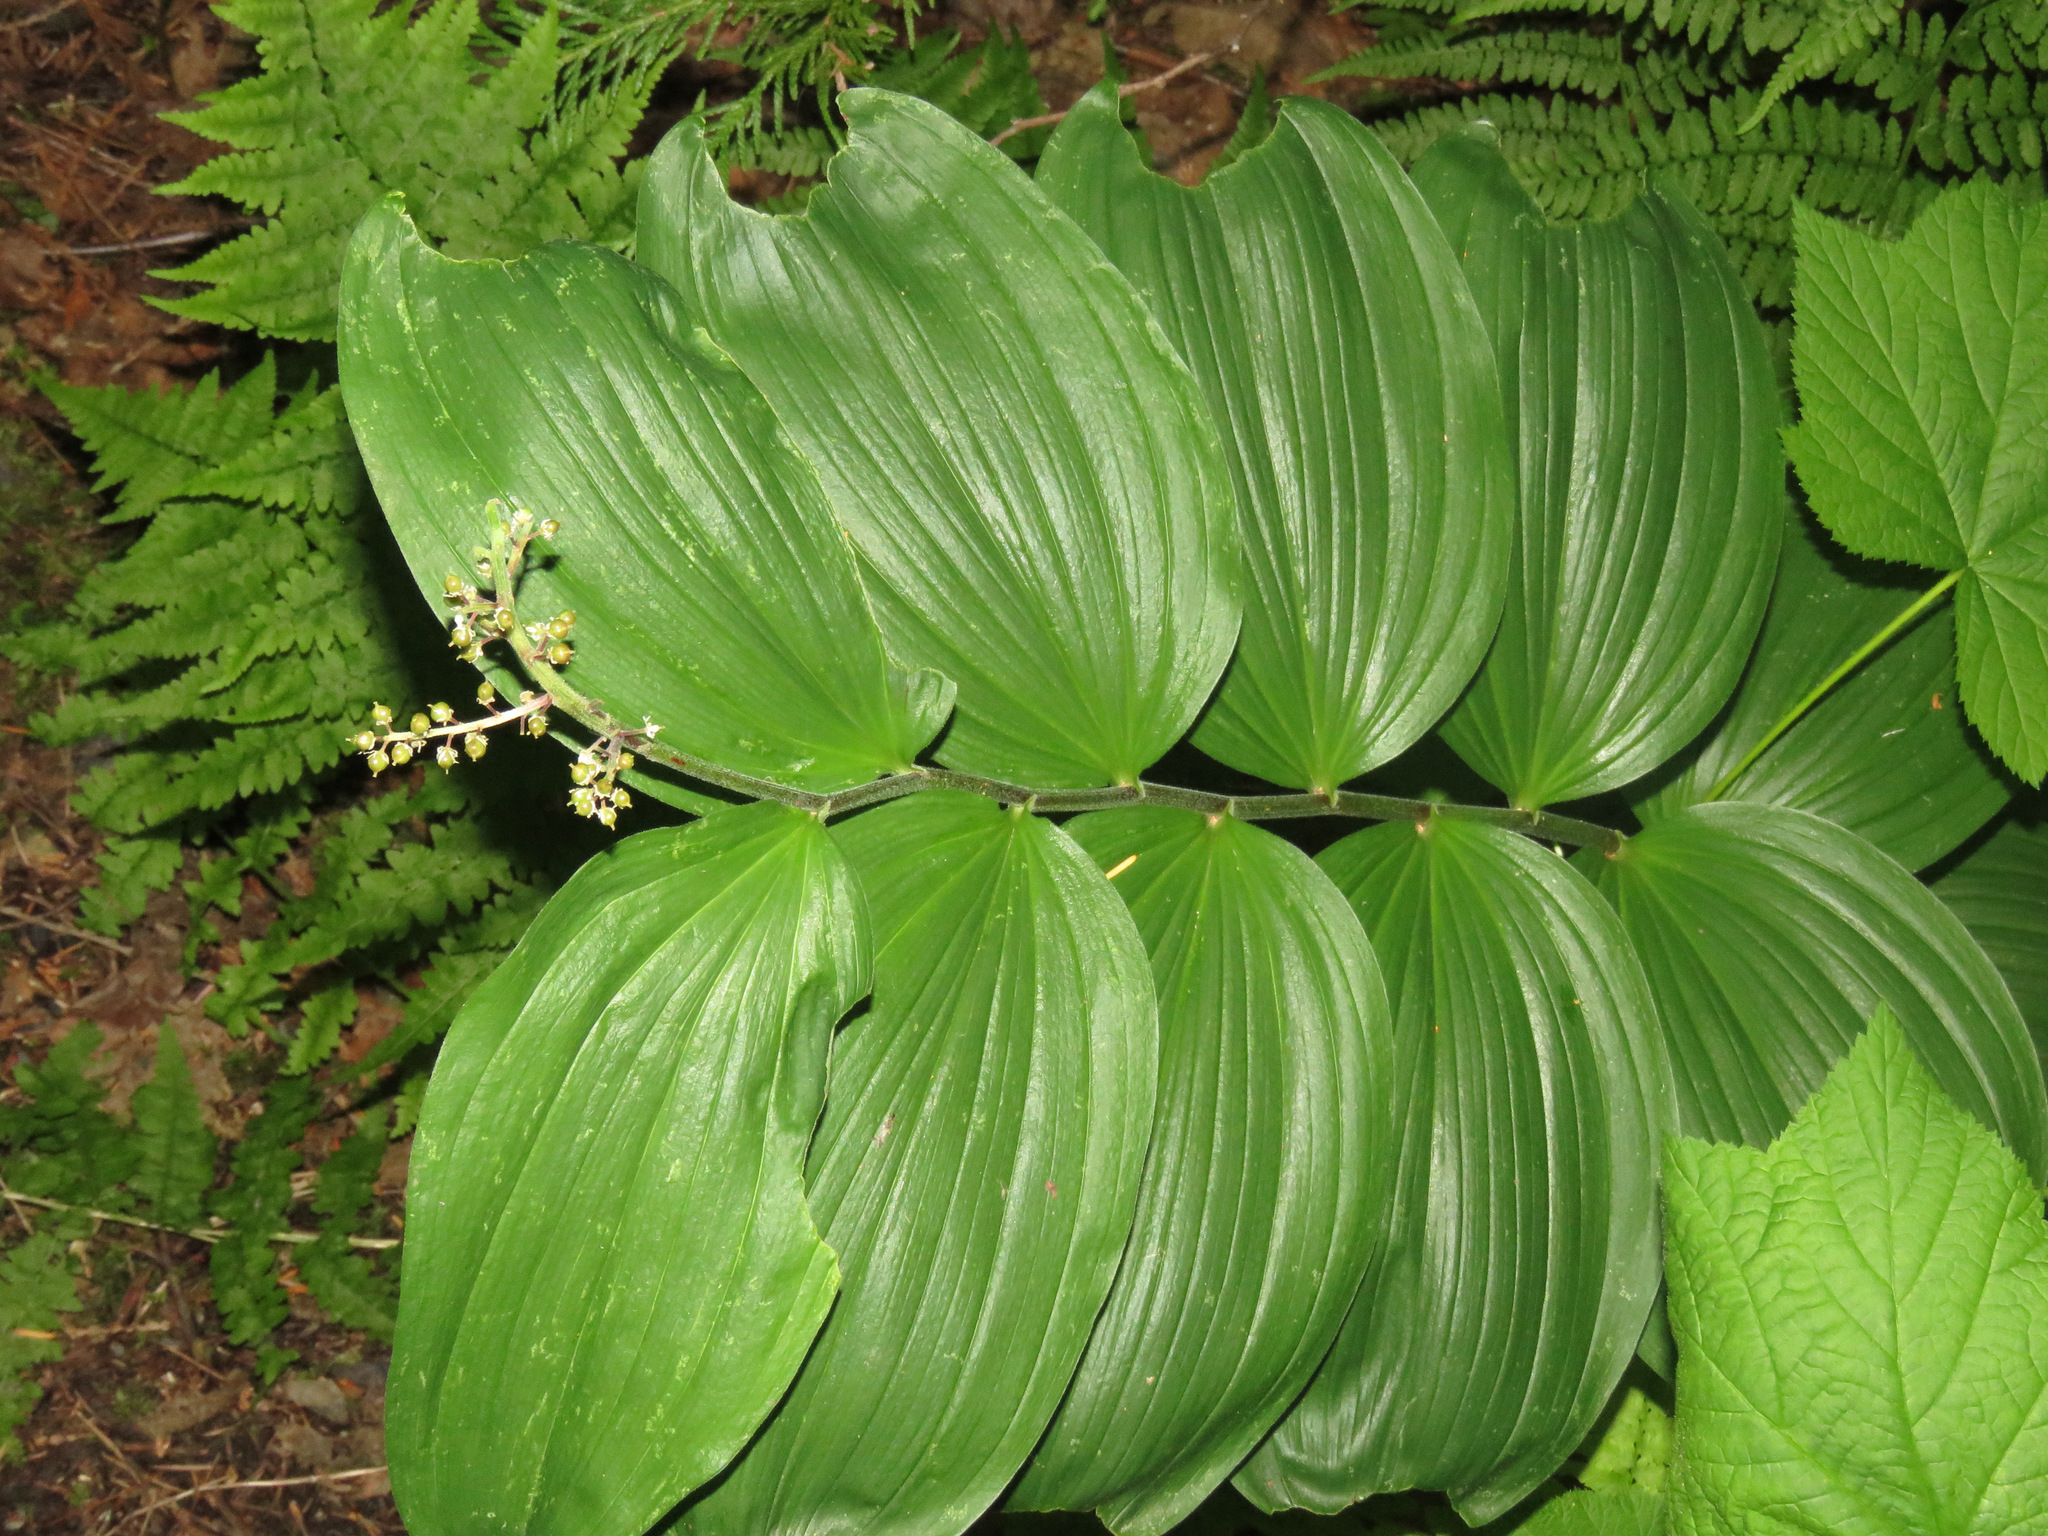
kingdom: Plantae
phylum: Tracheophyta
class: Liliopsida
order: Asparagales
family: Asparagaceae
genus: Maianthemum
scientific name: Maianthemum racemosum
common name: False spikenard
